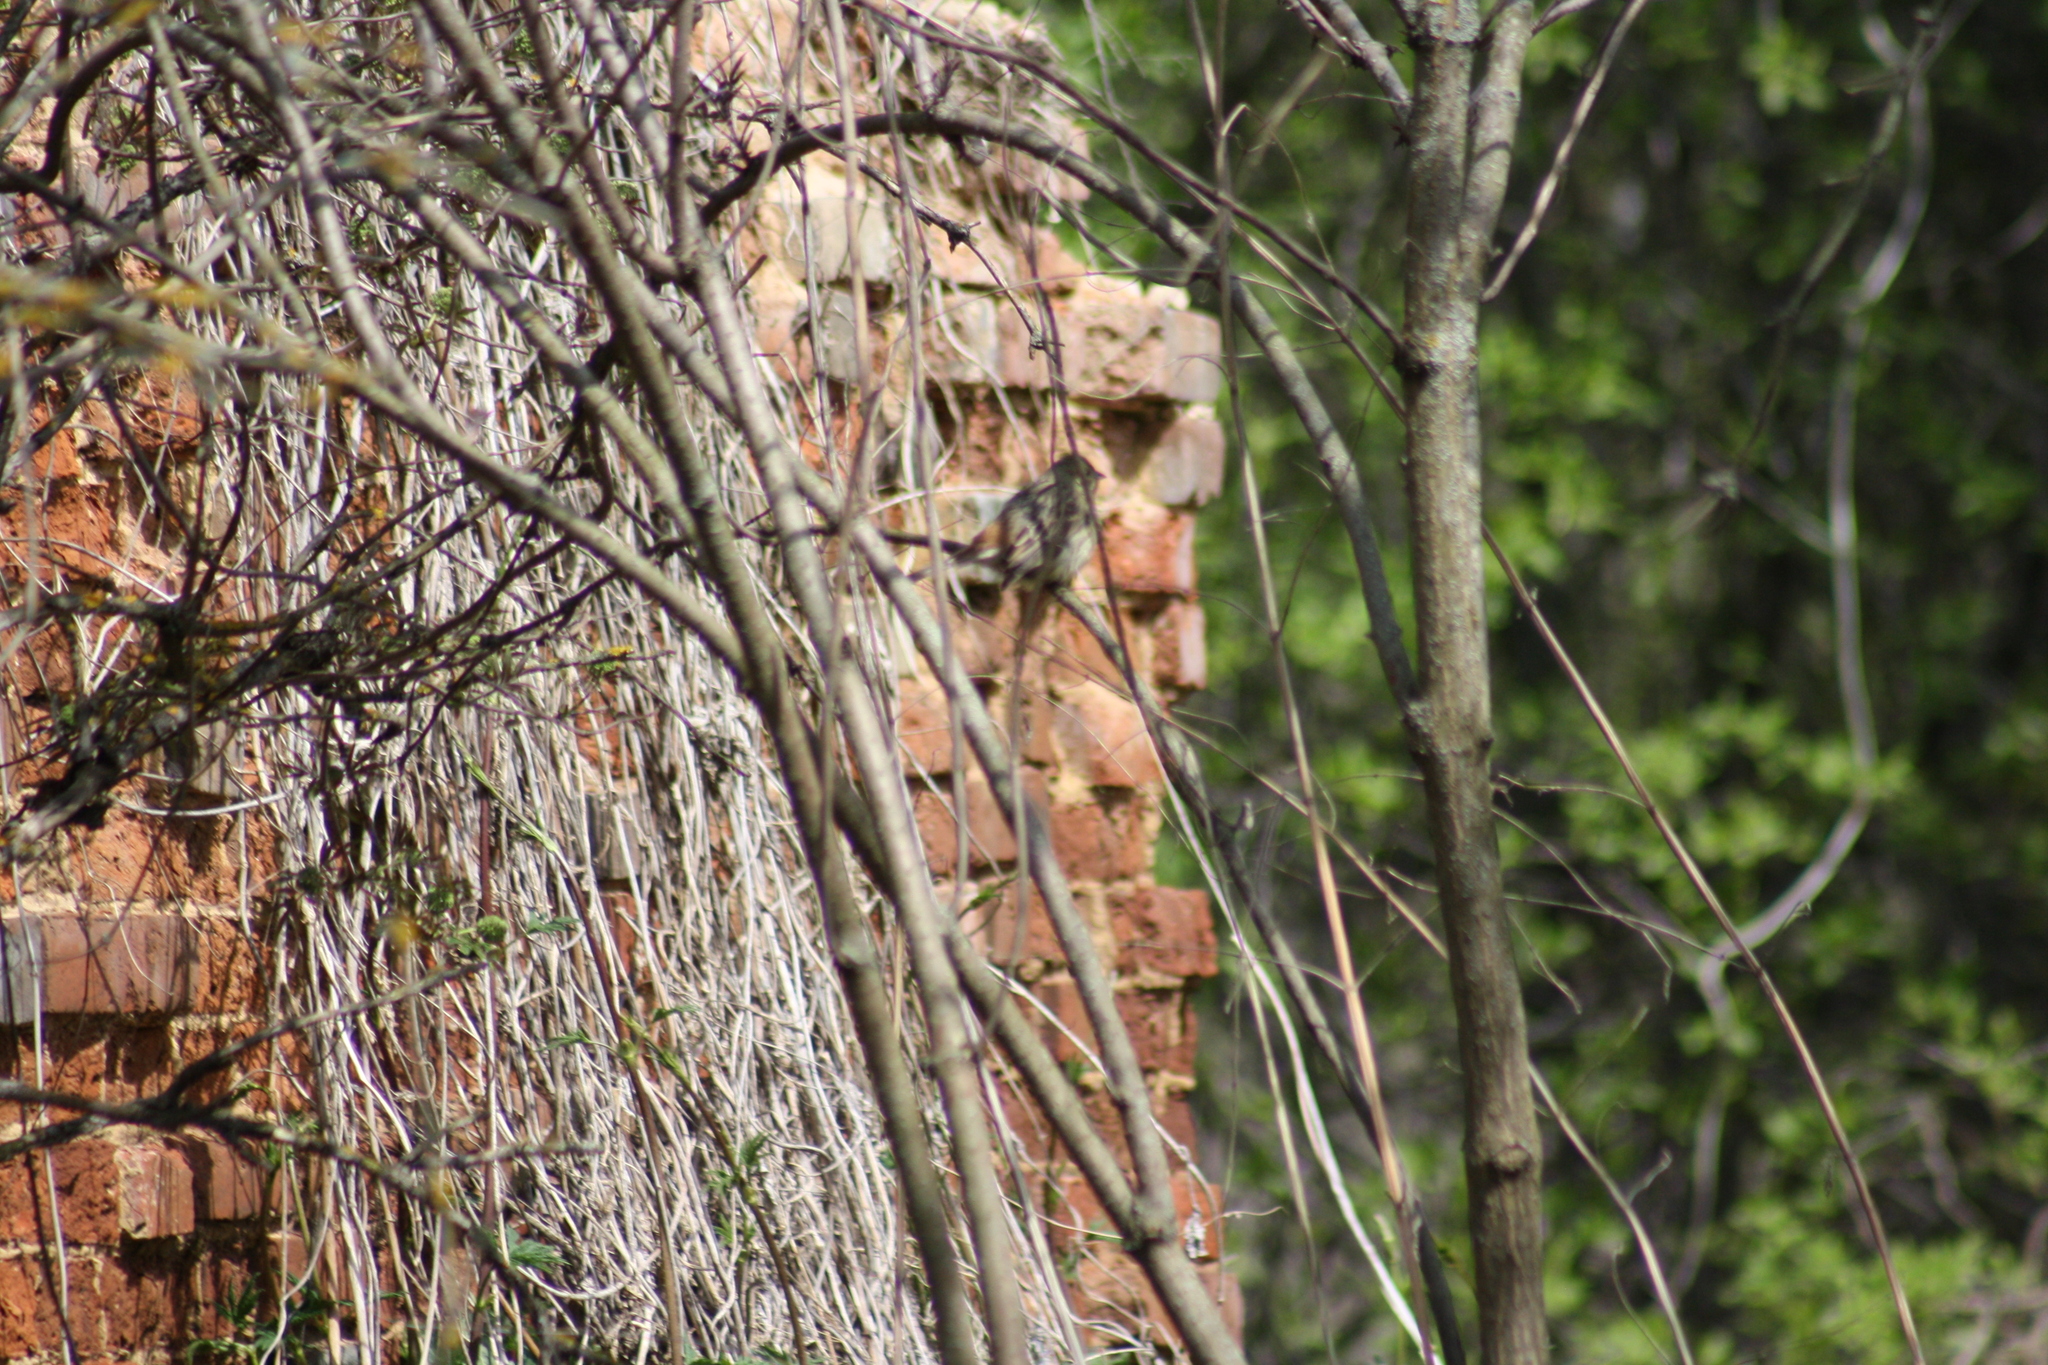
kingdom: Animalia
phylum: Chordata
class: Aves
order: Passeriformes
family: Emberizidae
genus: Emberiza
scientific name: Emberiza citrinella
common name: Yellowhammer
